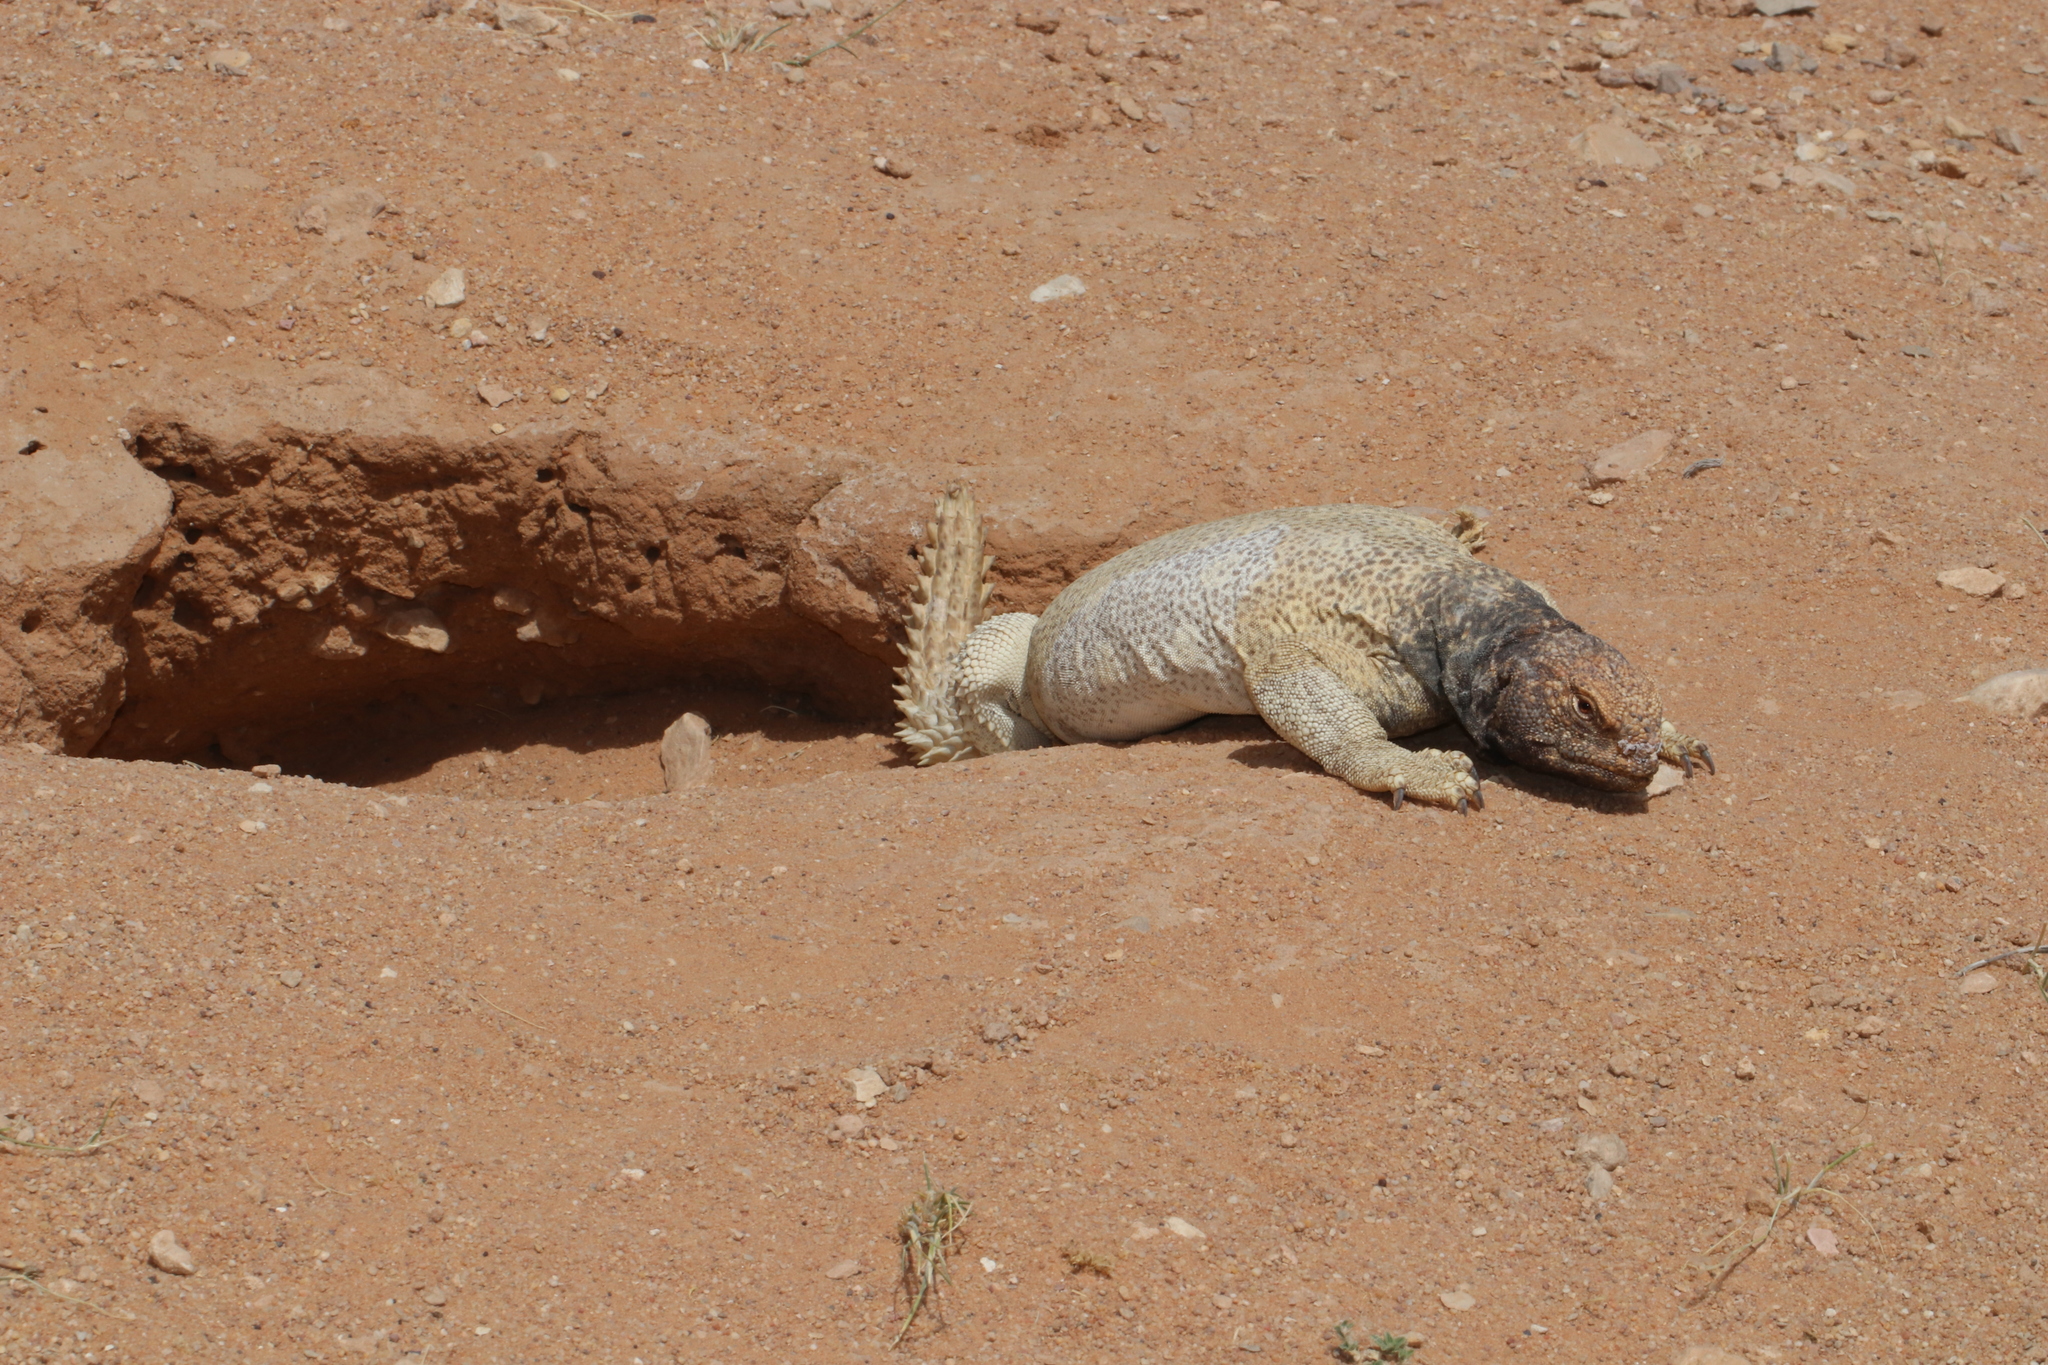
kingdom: Animalia
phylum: Chordata
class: Squamata
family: Agamidae
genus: Uromastyx
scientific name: Uromastyx aegyptia
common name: Egyptian mastigure
